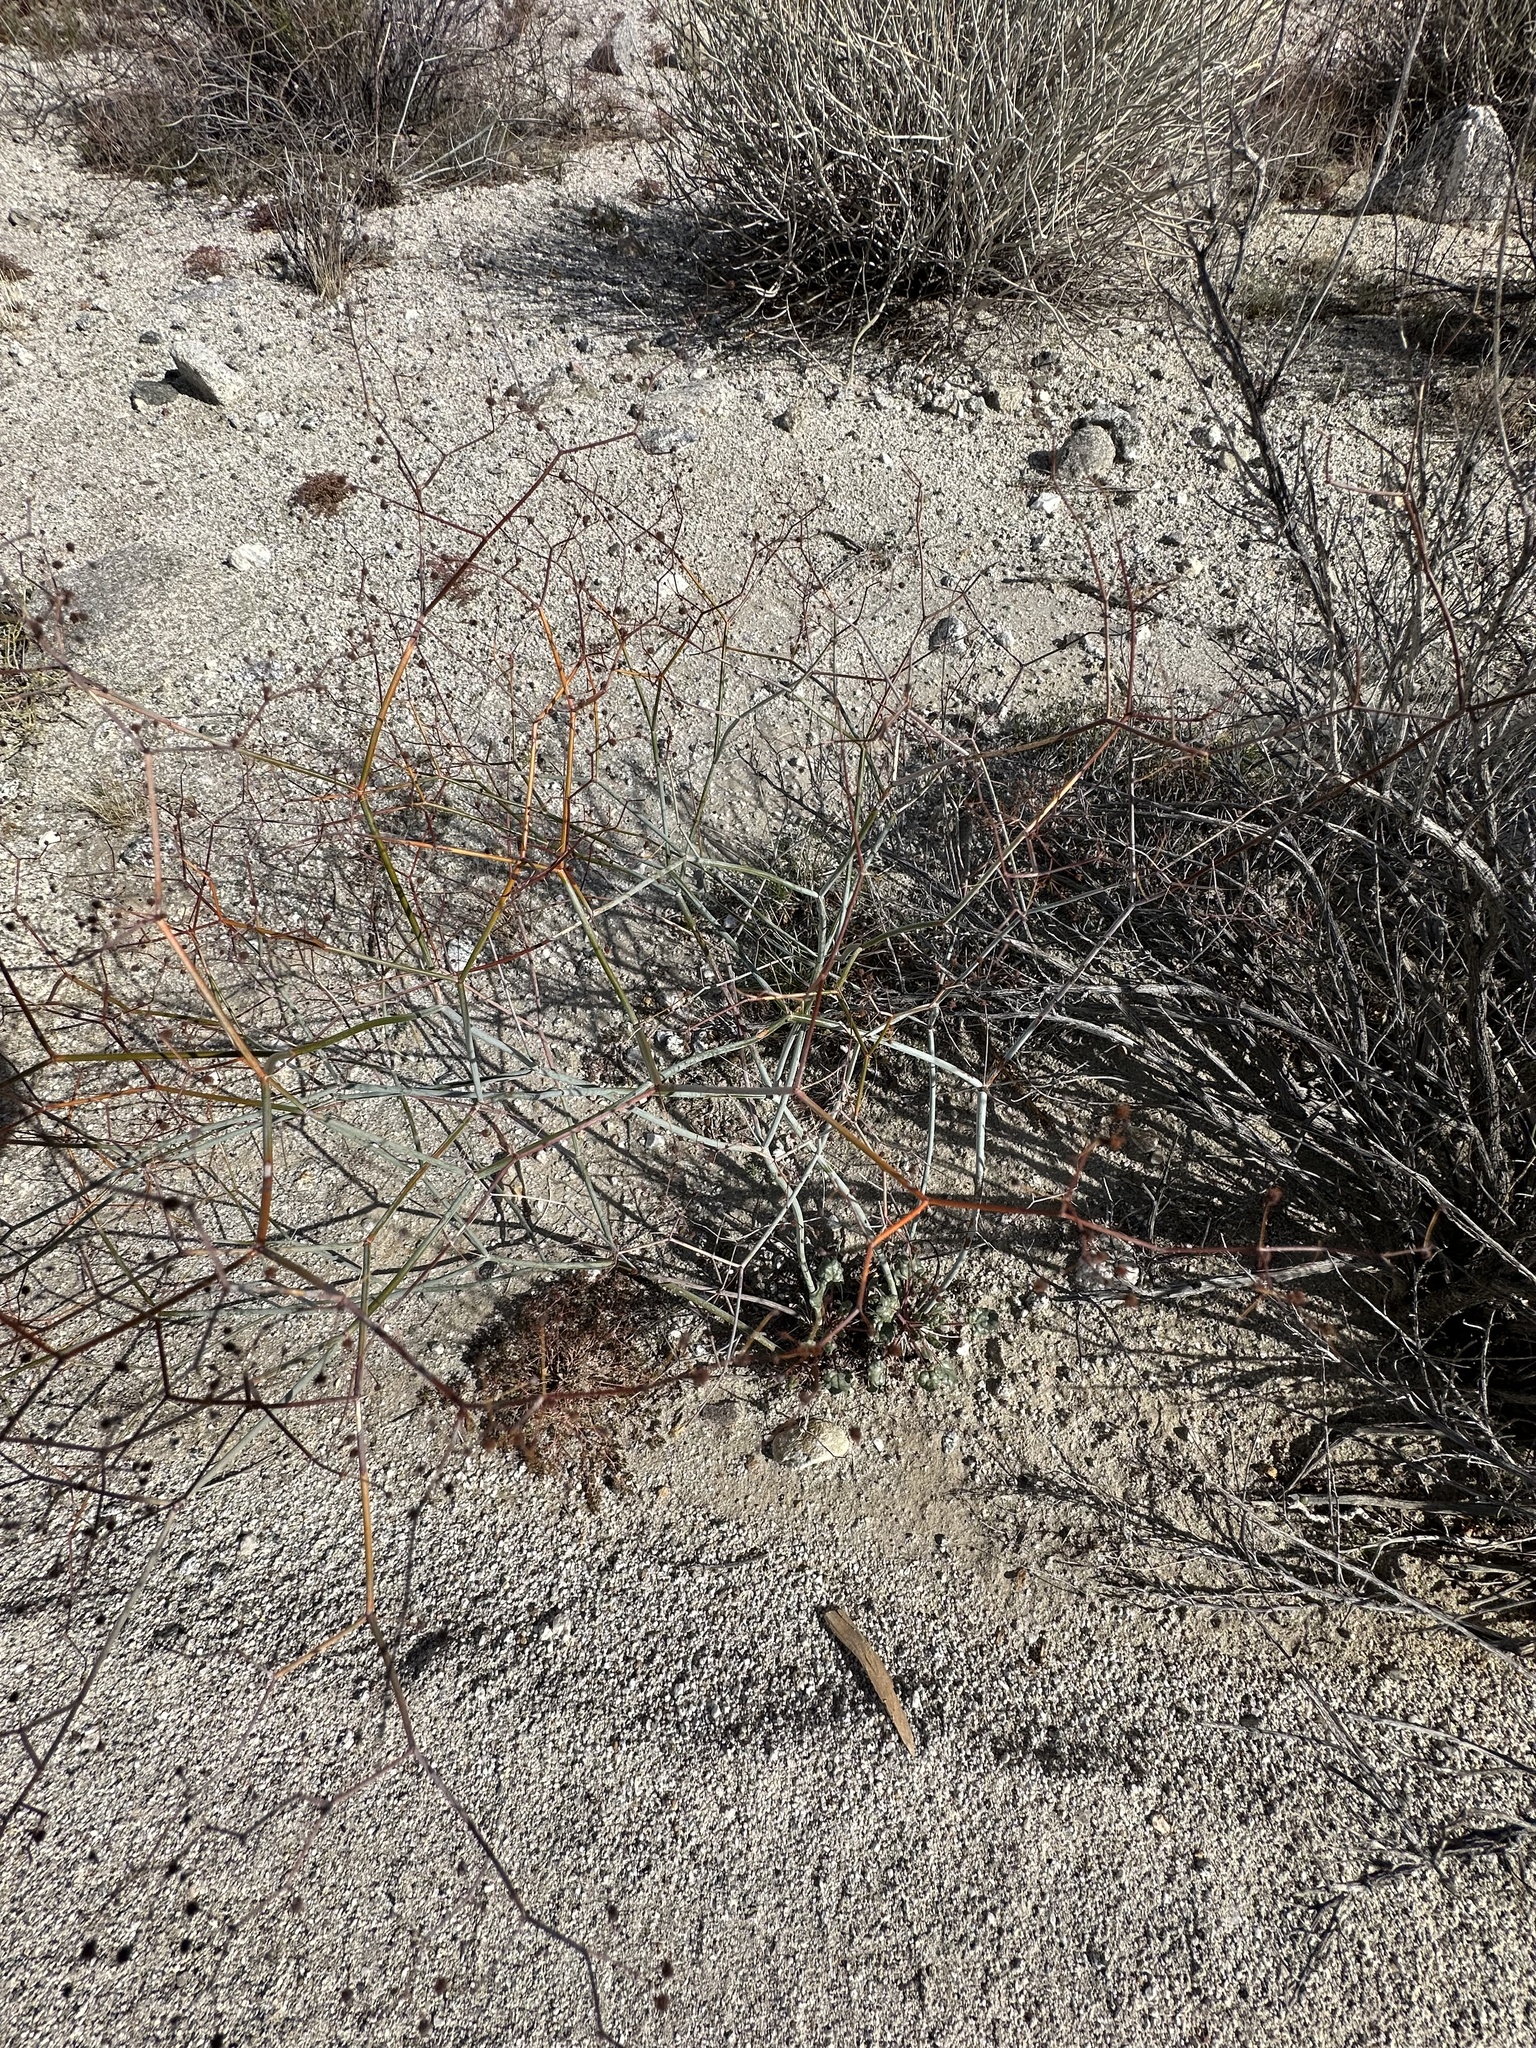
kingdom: Plantae
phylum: Tracheophyta
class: Magnoliopsida
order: Caryophyllales
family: Polygonaceae
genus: Eriogonum
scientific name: Eriogonum inflatum
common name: Desert trumpet
